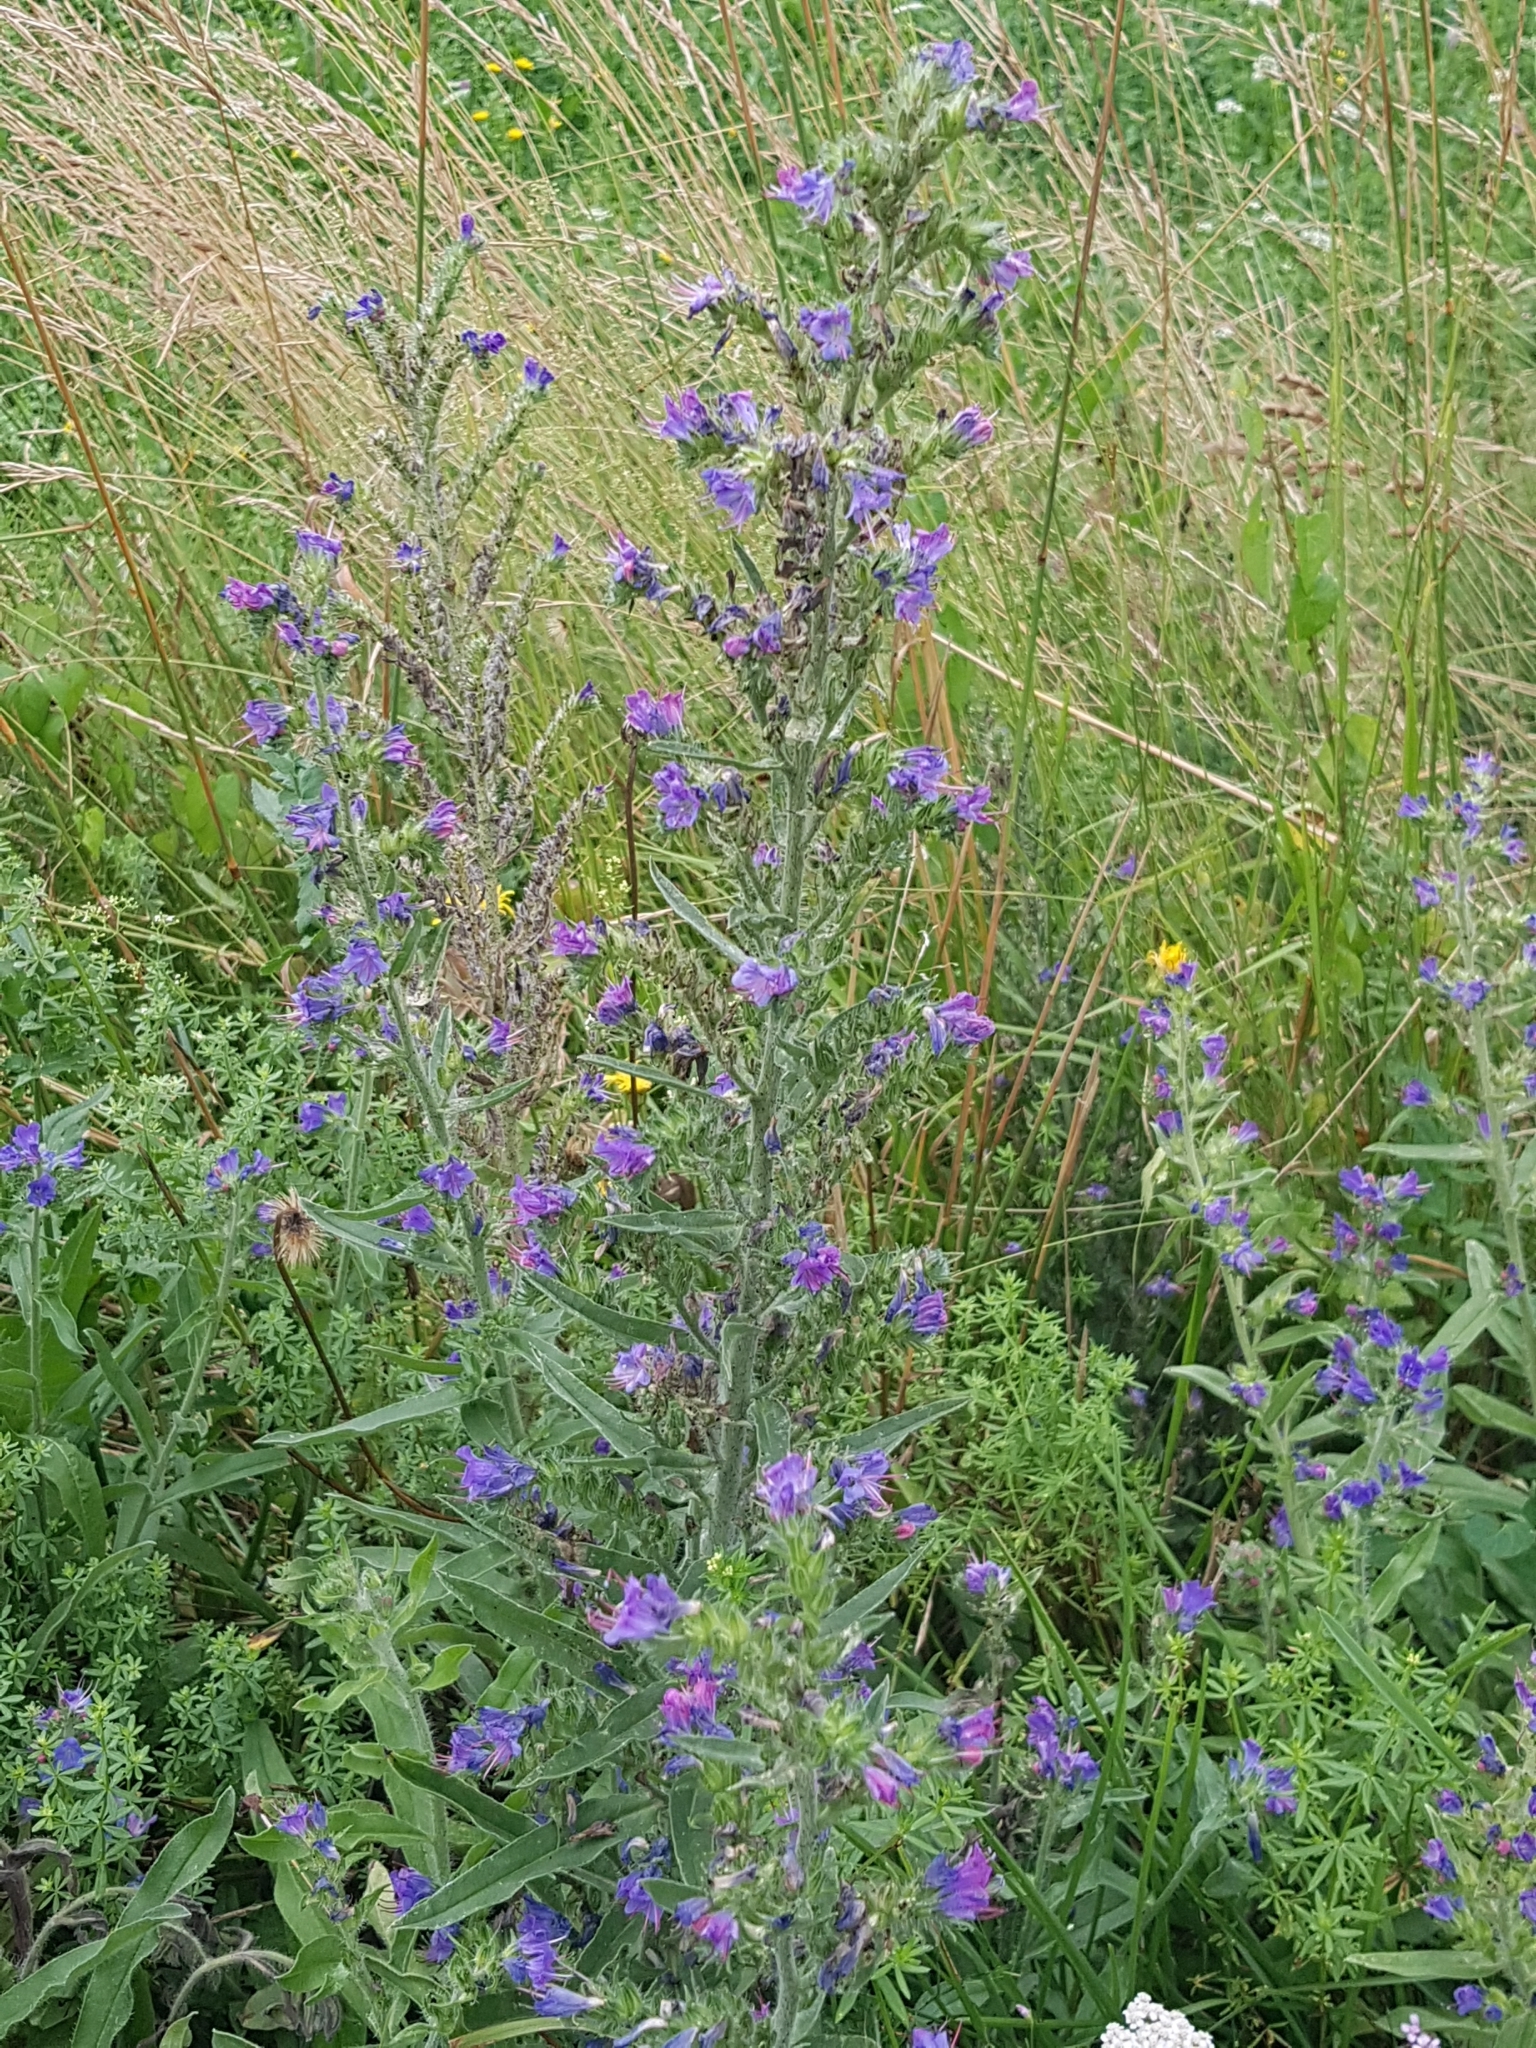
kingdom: Plantae
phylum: Tracheophyta
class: Magnoliopsida
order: Boraginales
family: Boraginaceae
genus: Echium
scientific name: Echium vulgare
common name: Common viper's bugloss
